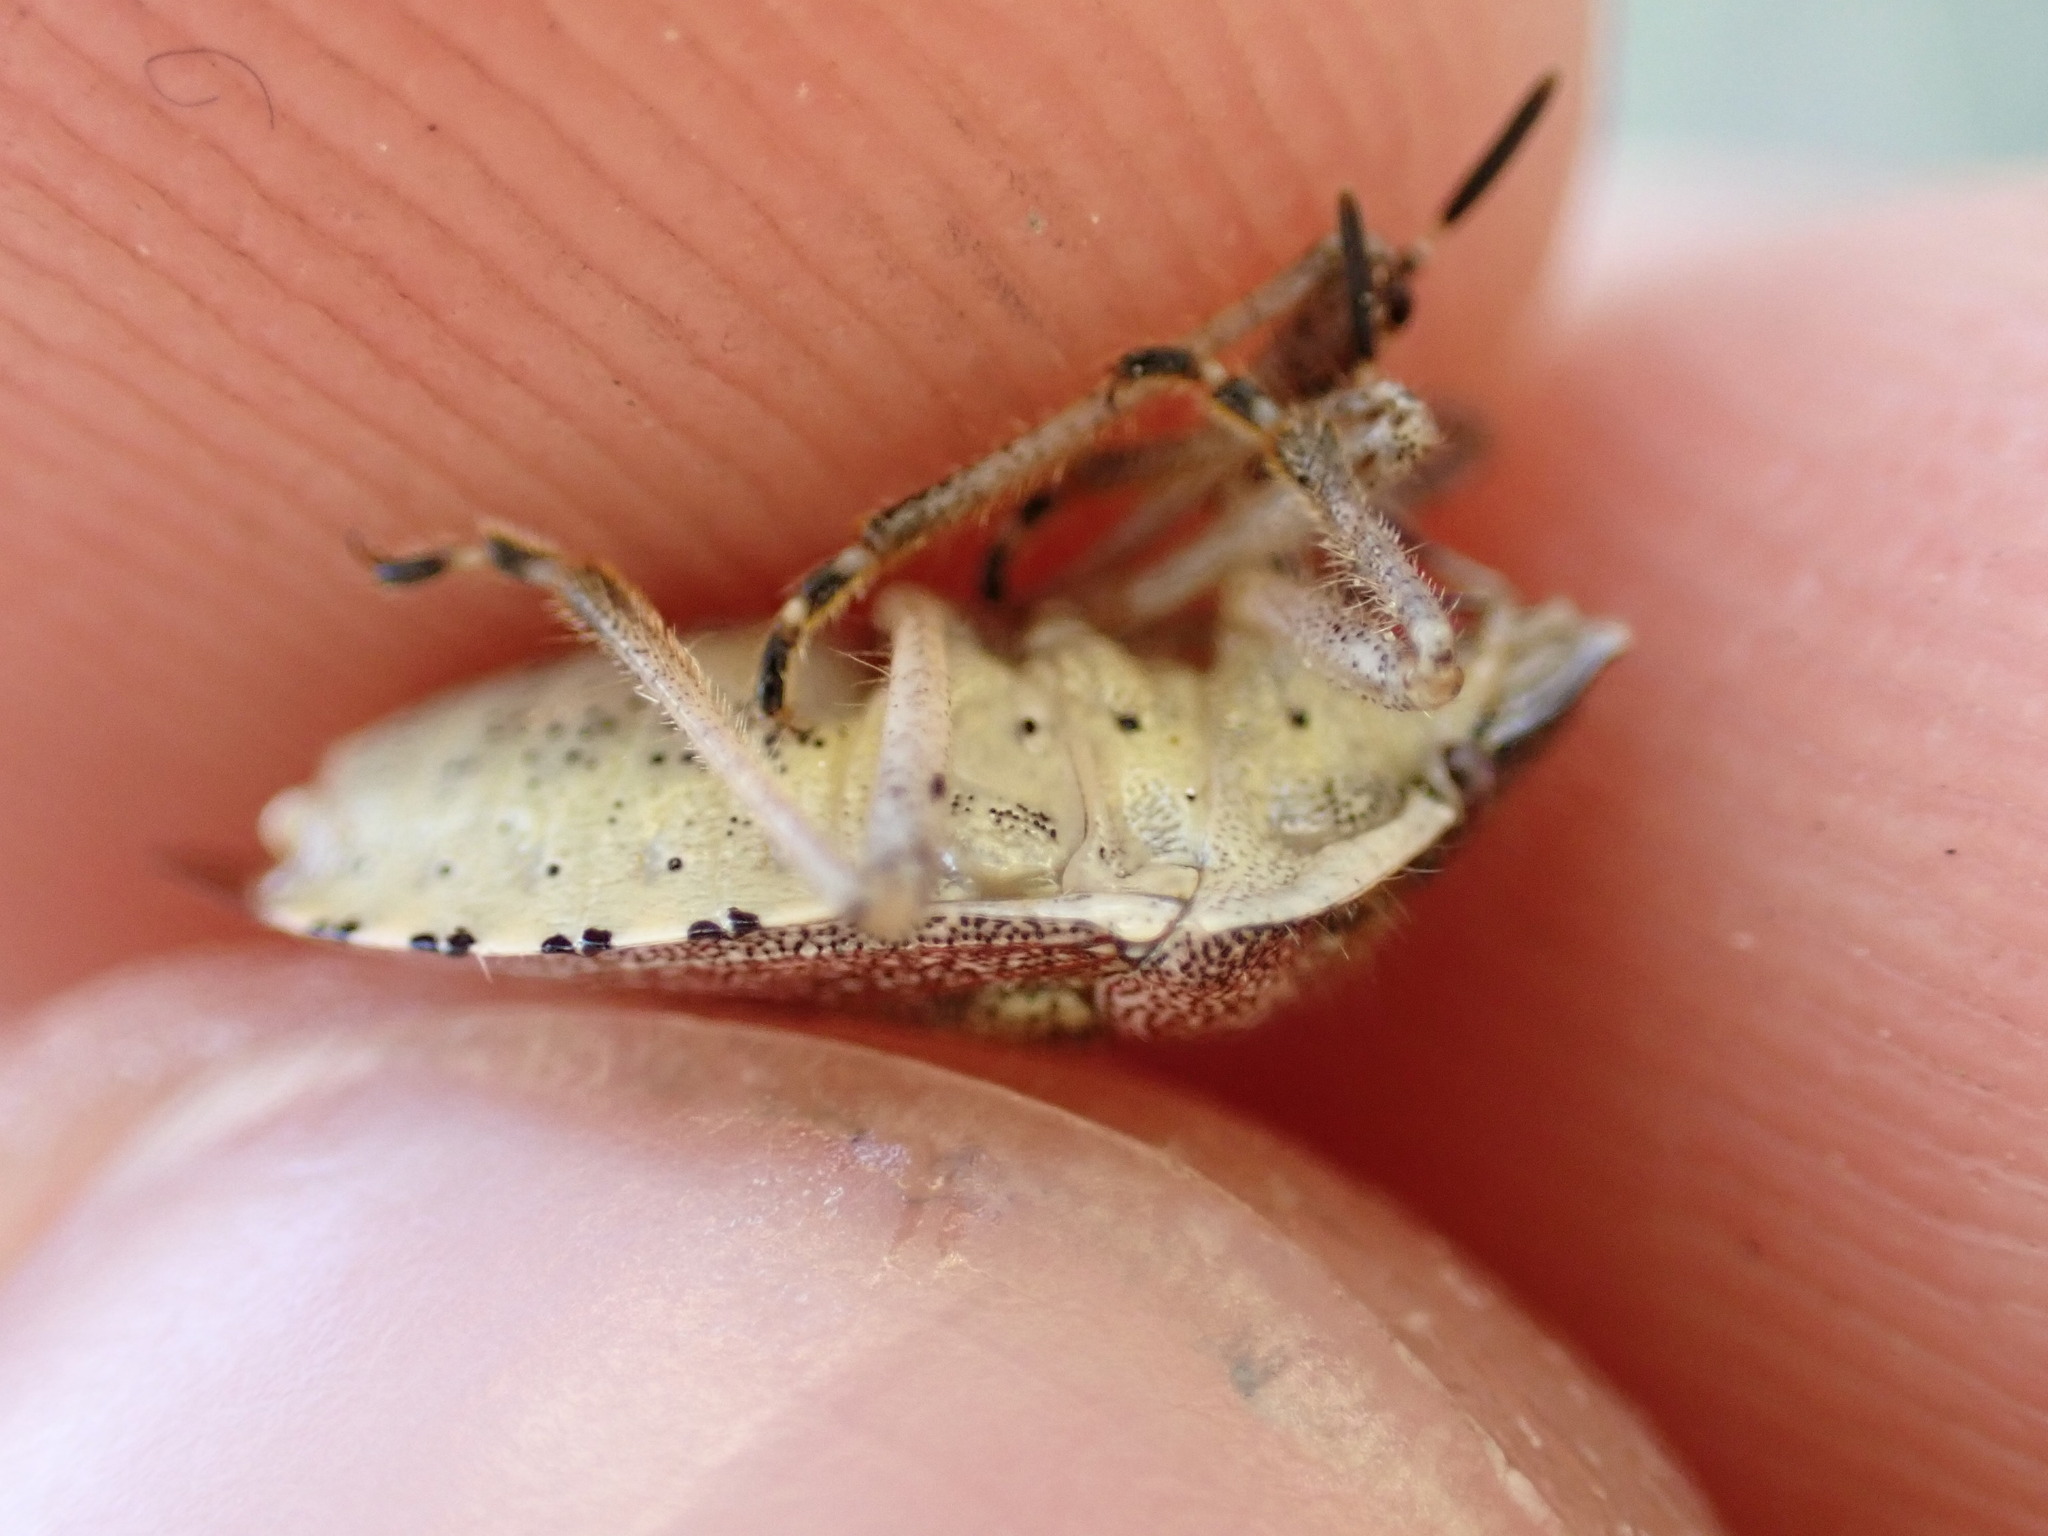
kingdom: Animalia
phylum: Arthropoda
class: Insecta
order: Hemiptera
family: Pentatomidae
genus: Dolycoris
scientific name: Dolycoris baccarum
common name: Sloe bug
